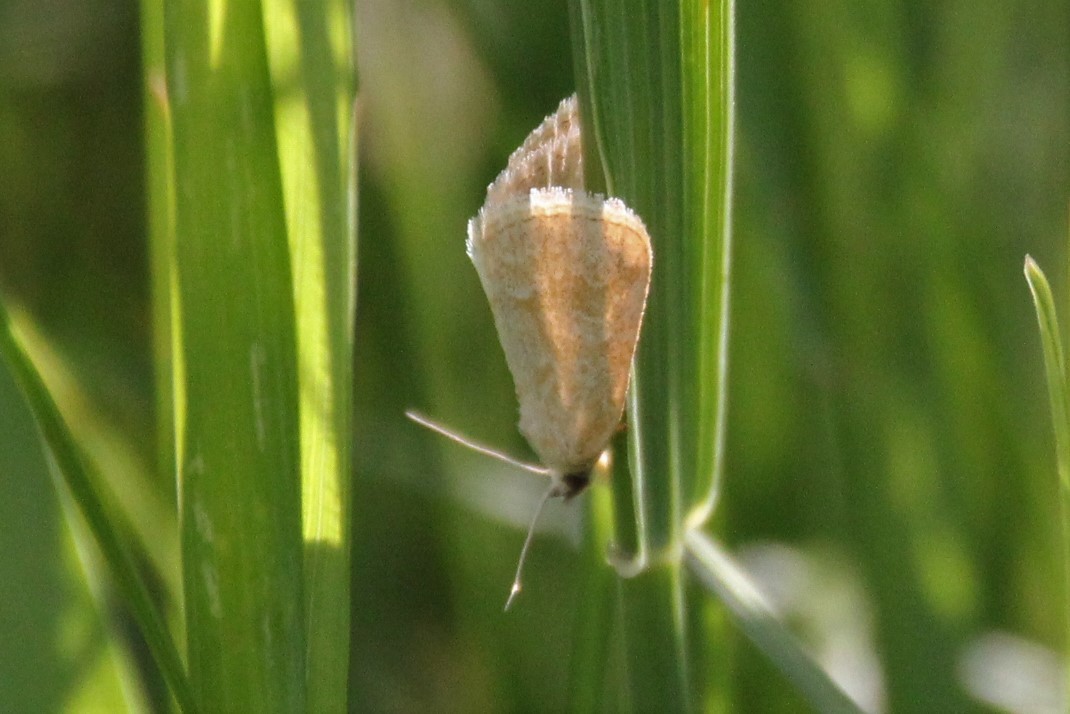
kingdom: Animalia
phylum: Arthropoda
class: Insecta
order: Lepidoptera
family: Noctuidae
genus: Protodeltote
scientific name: Protodeltote albidula
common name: Pale glyph
